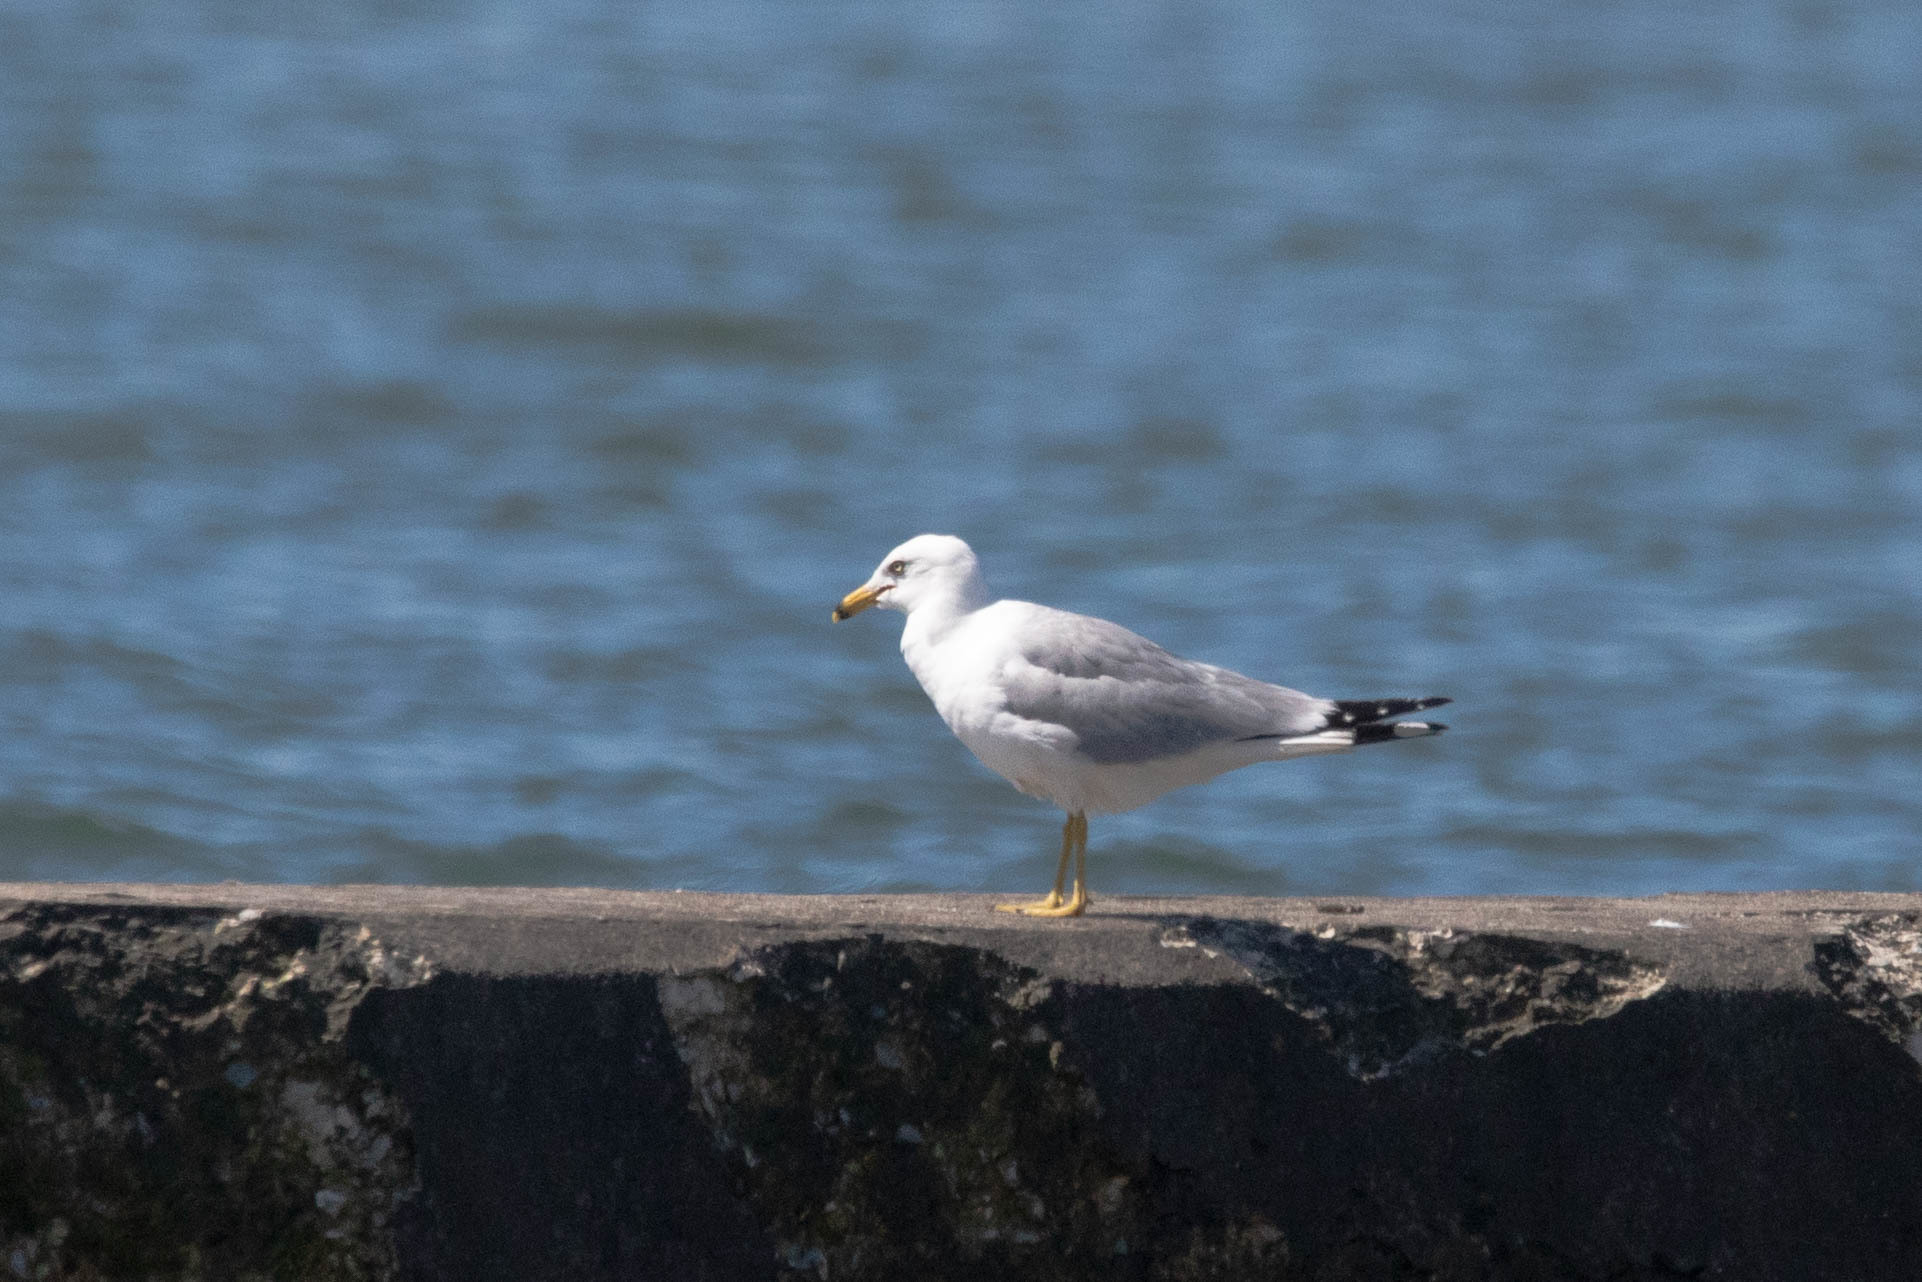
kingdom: Animalia
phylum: Chordata
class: Aves
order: Charadriiformes
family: Laridae
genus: Larus
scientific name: Larus delawarensis
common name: Ring-billed gull
